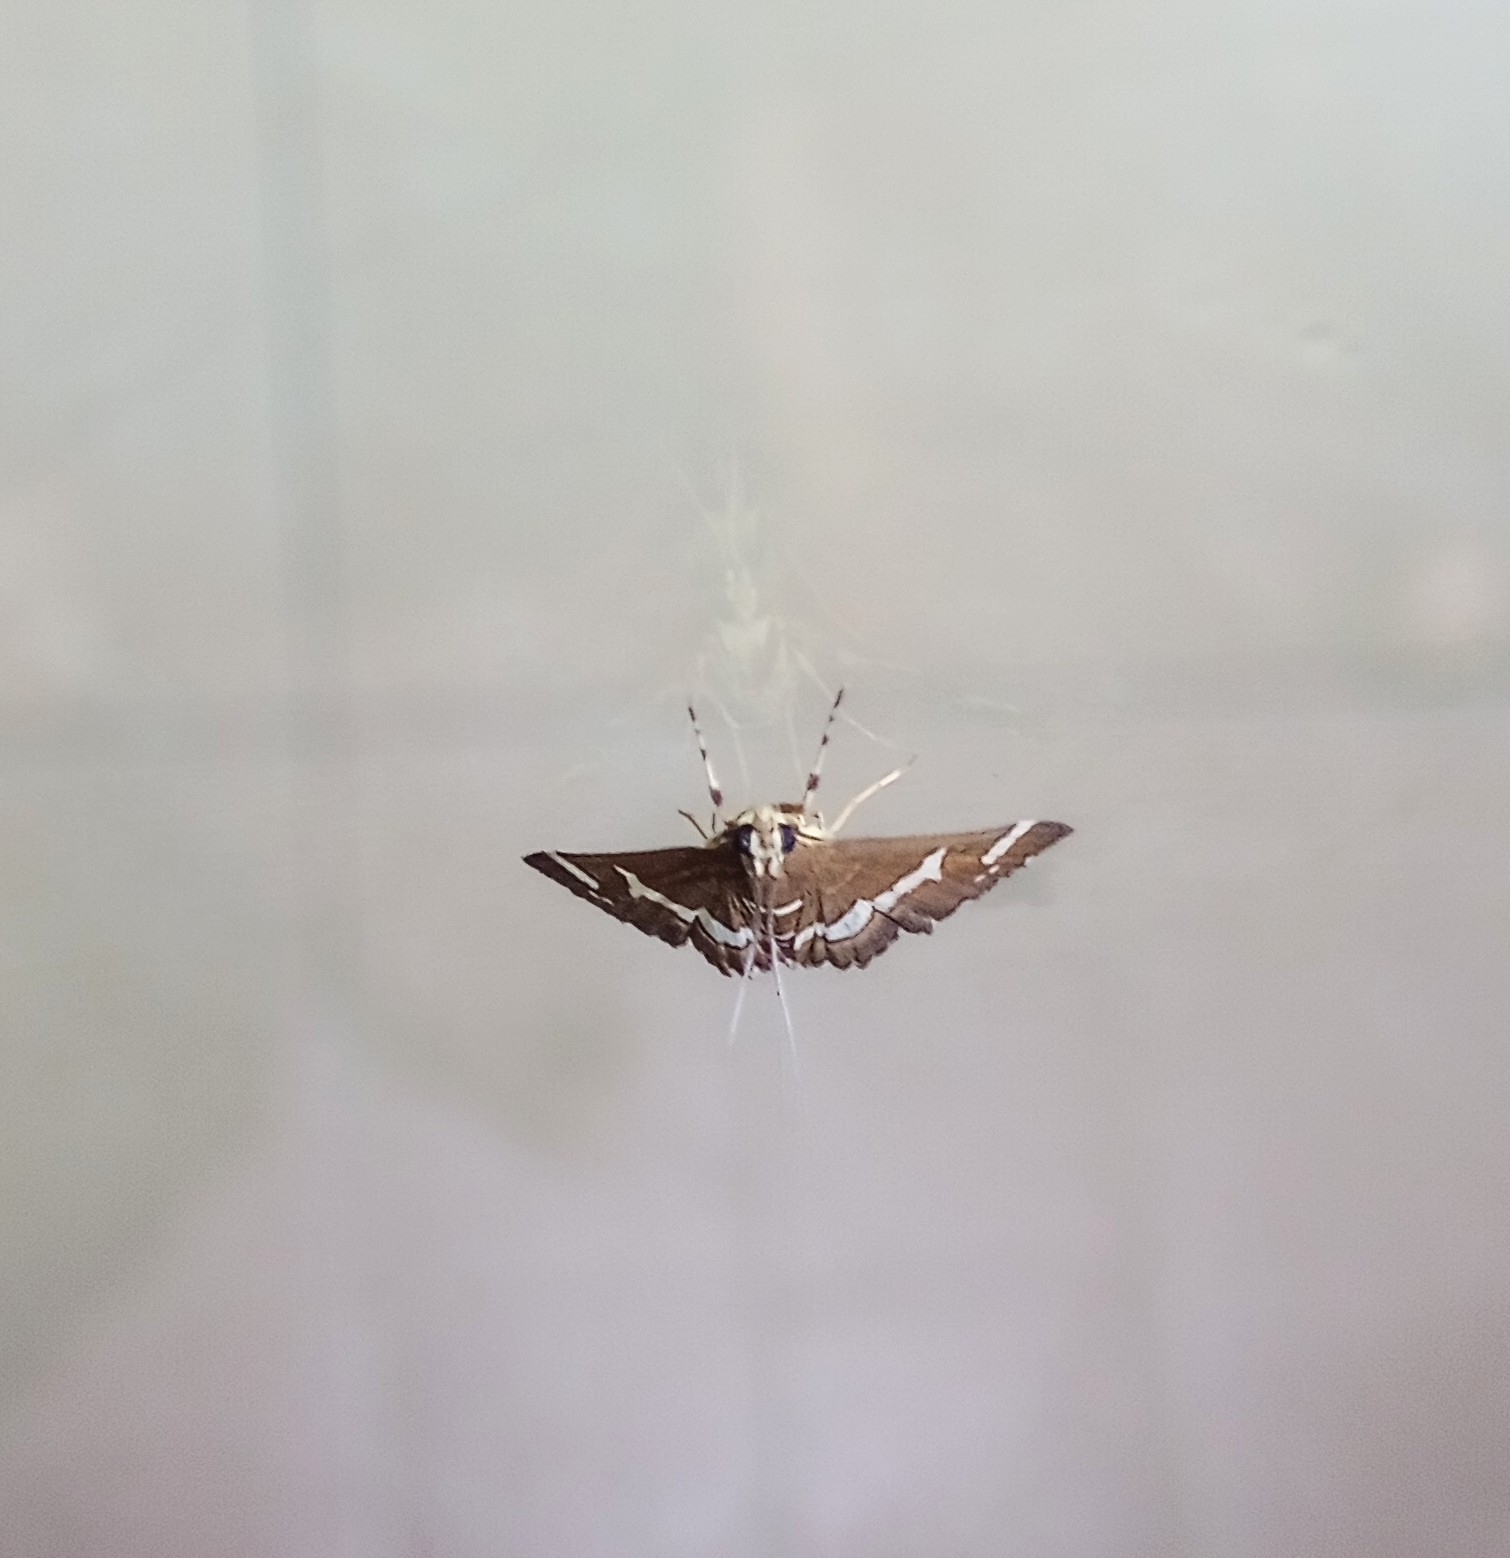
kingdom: Animalia
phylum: Arthropoda
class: Insecta
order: Lepidoptera
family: Crambidae
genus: Spoladea
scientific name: Spoladea recurvalis
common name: Beet webworm moth
